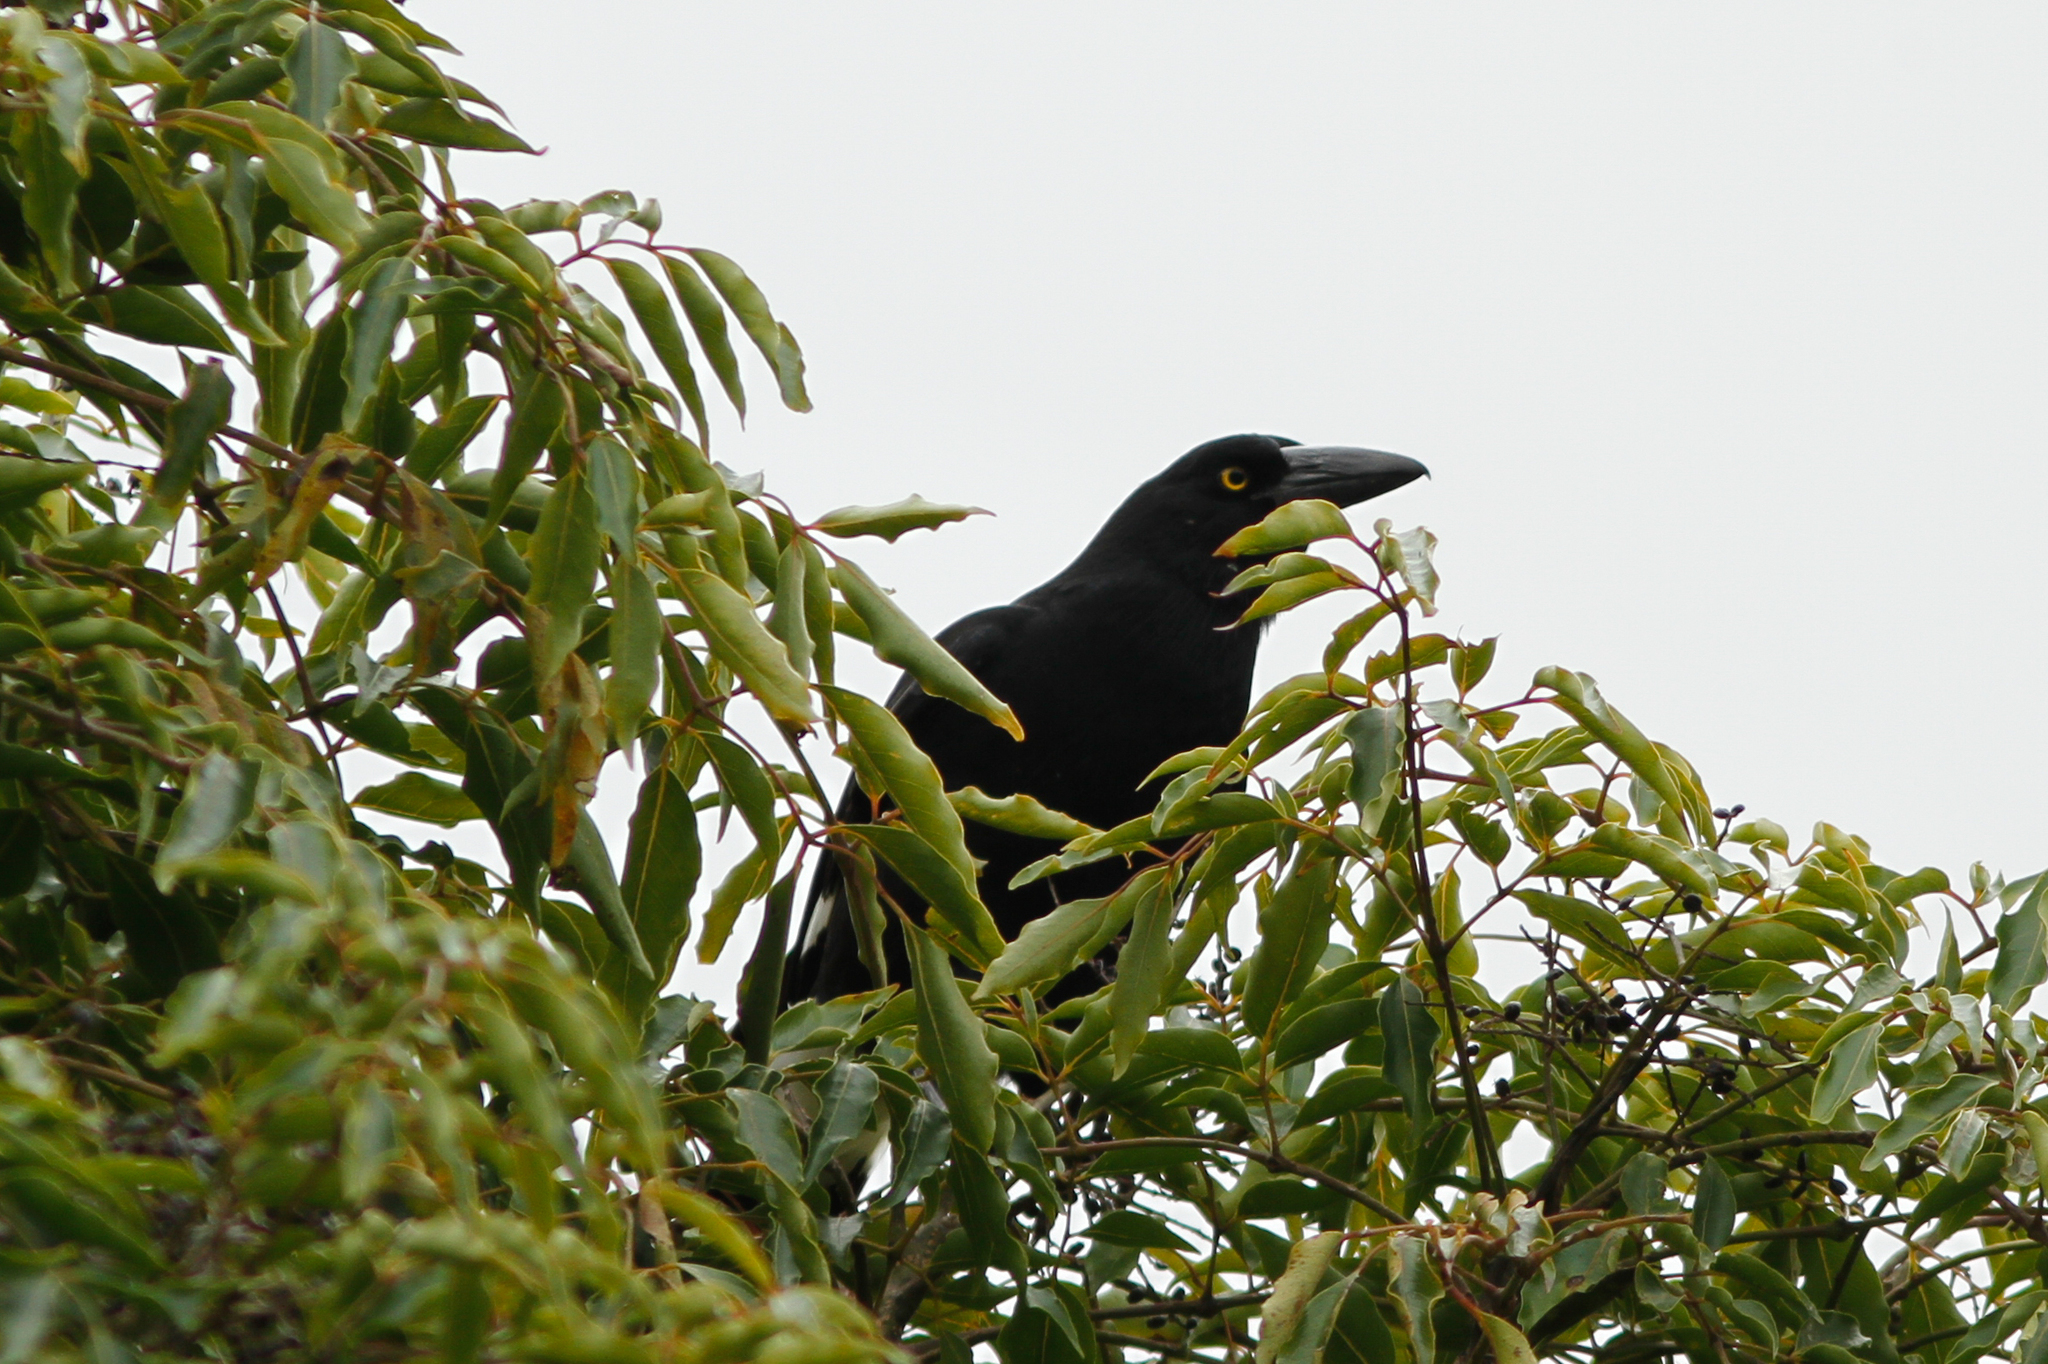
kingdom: Animalia
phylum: Chordata
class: Aves
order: Passeriformes
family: Cracticidae
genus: Strepera
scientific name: Strepera graculina
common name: Pied currawong
